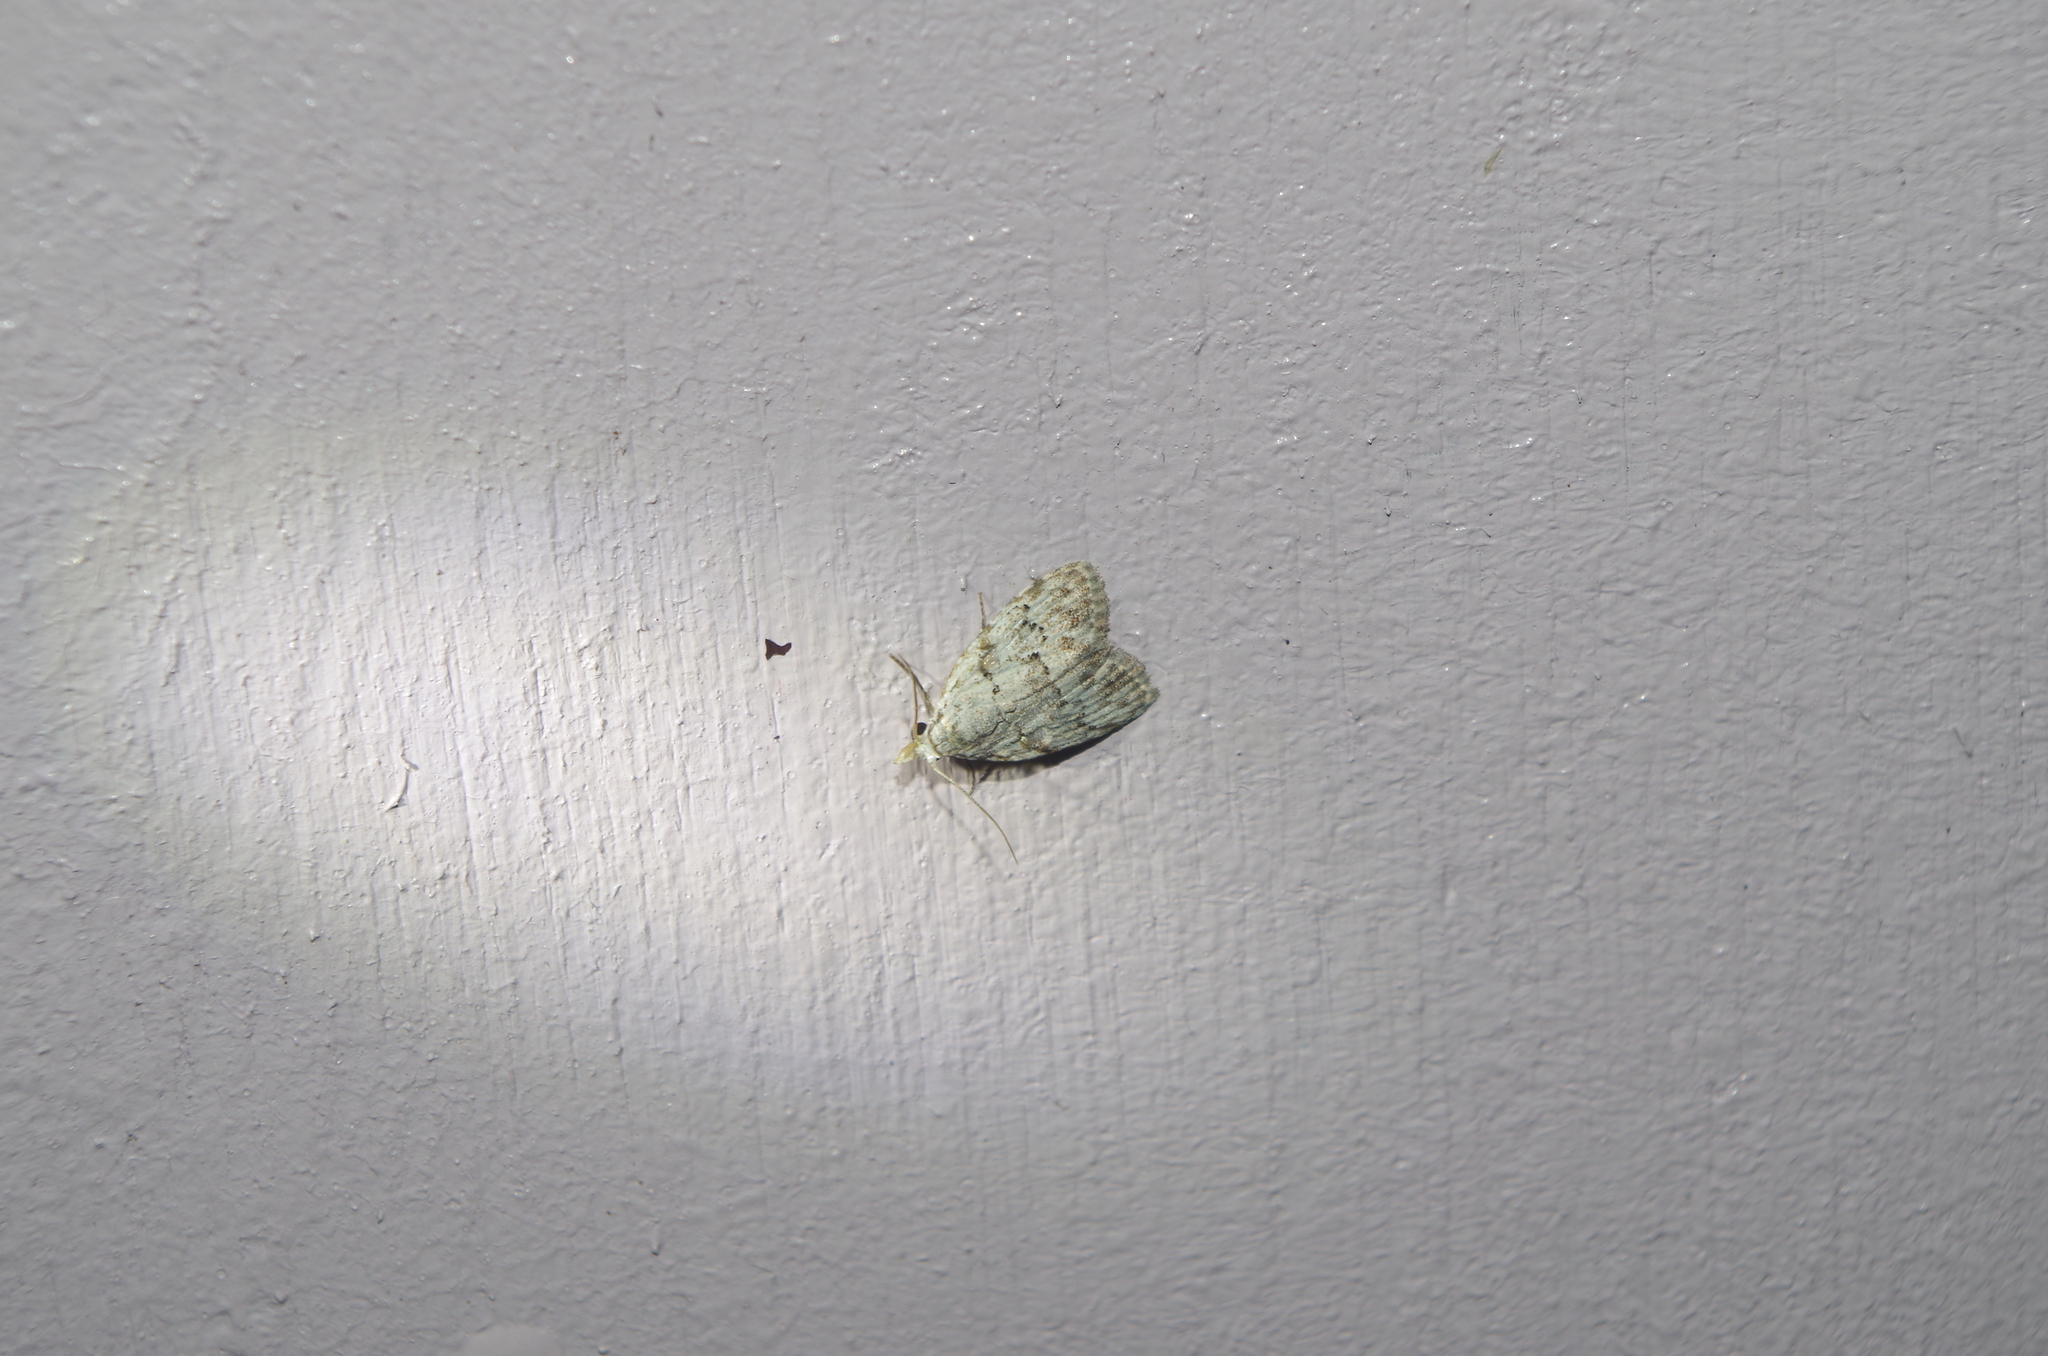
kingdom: Animalia
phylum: Arthropoda
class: Insecta
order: Lepidoptera
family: Nolidae
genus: Nola
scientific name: Nola thyrophora
